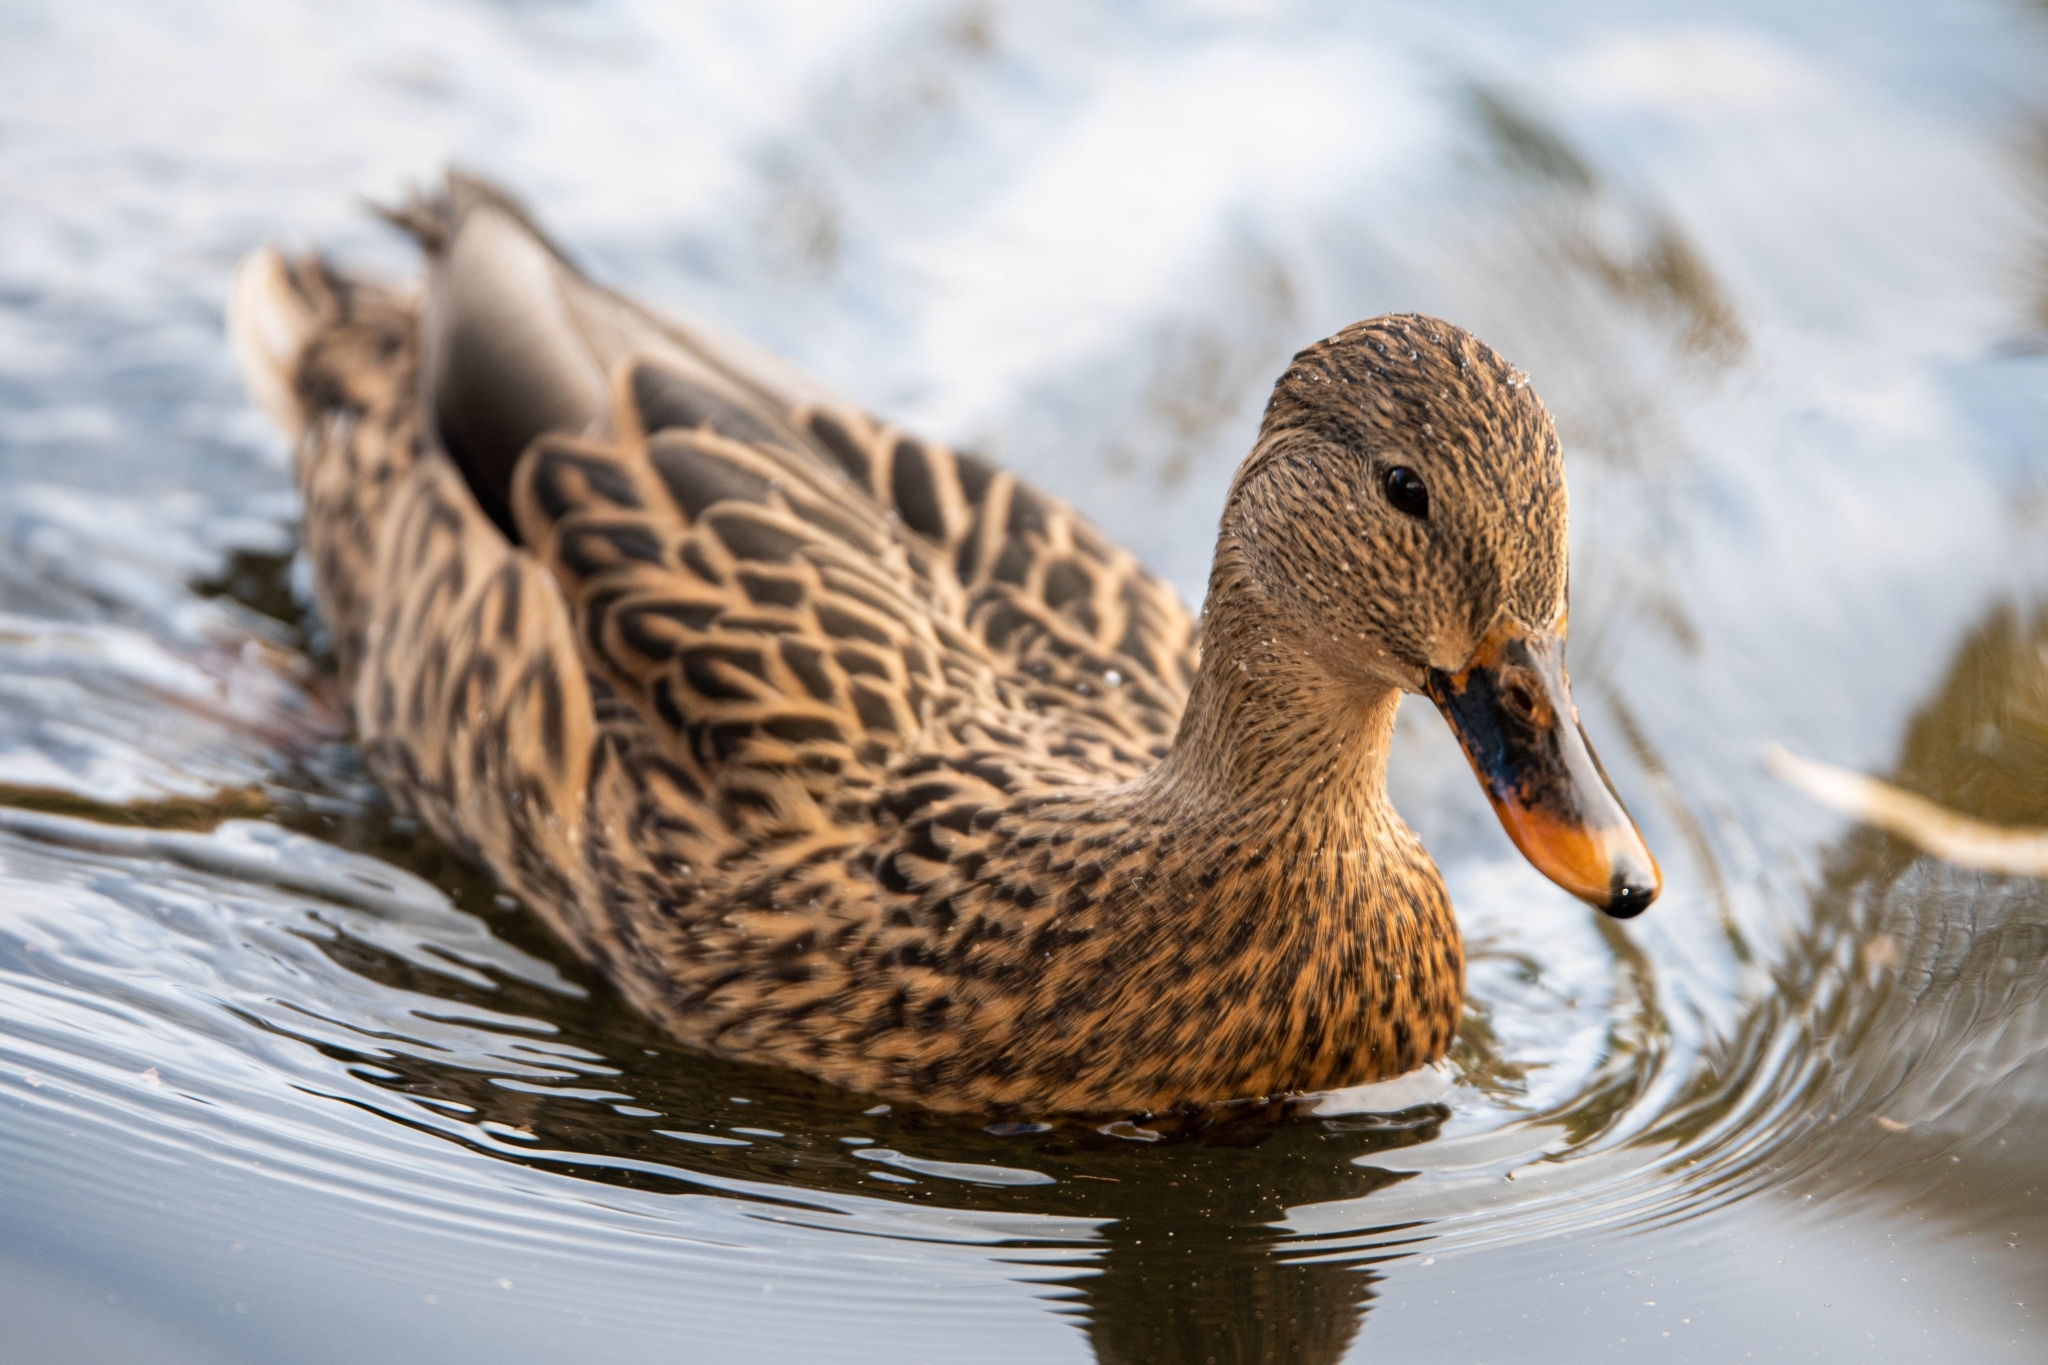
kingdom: Animalia
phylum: Chordata
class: Aves
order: Anseriformes
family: Anatidae
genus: Anas
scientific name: Anas platyrhynchos
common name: Mallard
